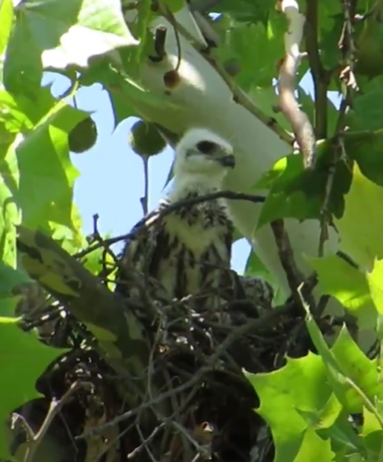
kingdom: Animalia
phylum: Chordata
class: Aves
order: Accipitriformes
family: Accipitridae
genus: Ictinia
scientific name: Ictinia mississippiensis
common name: Mississippi kite
